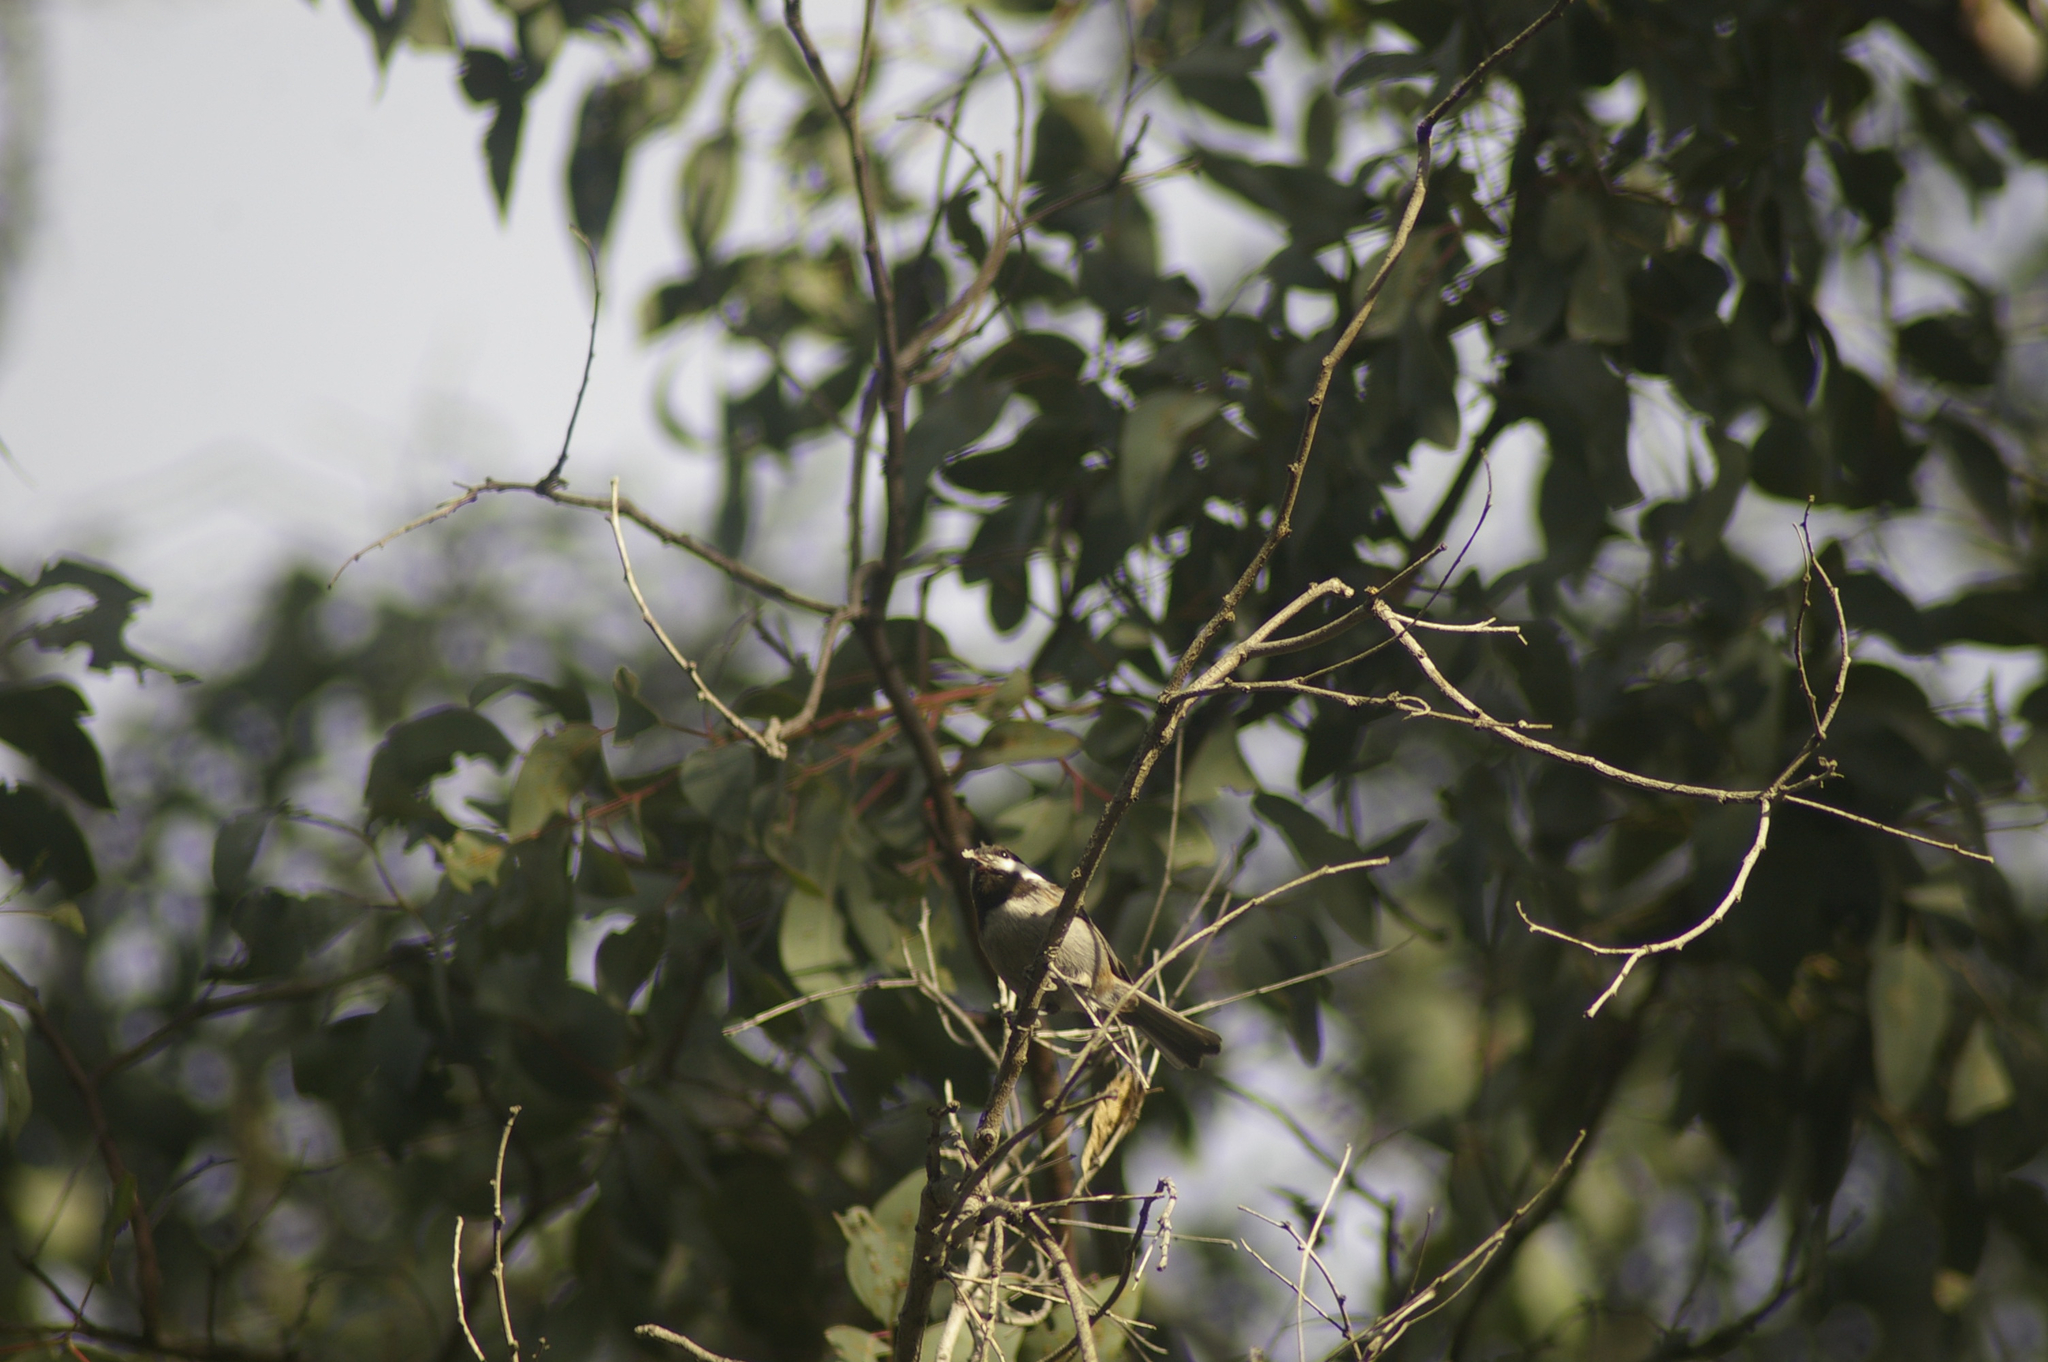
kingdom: Animalia
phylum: Chordata
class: Aves
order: Passeriformes
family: Paridae
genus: Poecile
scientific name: Poecile rufescens
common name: Chestnut-backed chickadee
